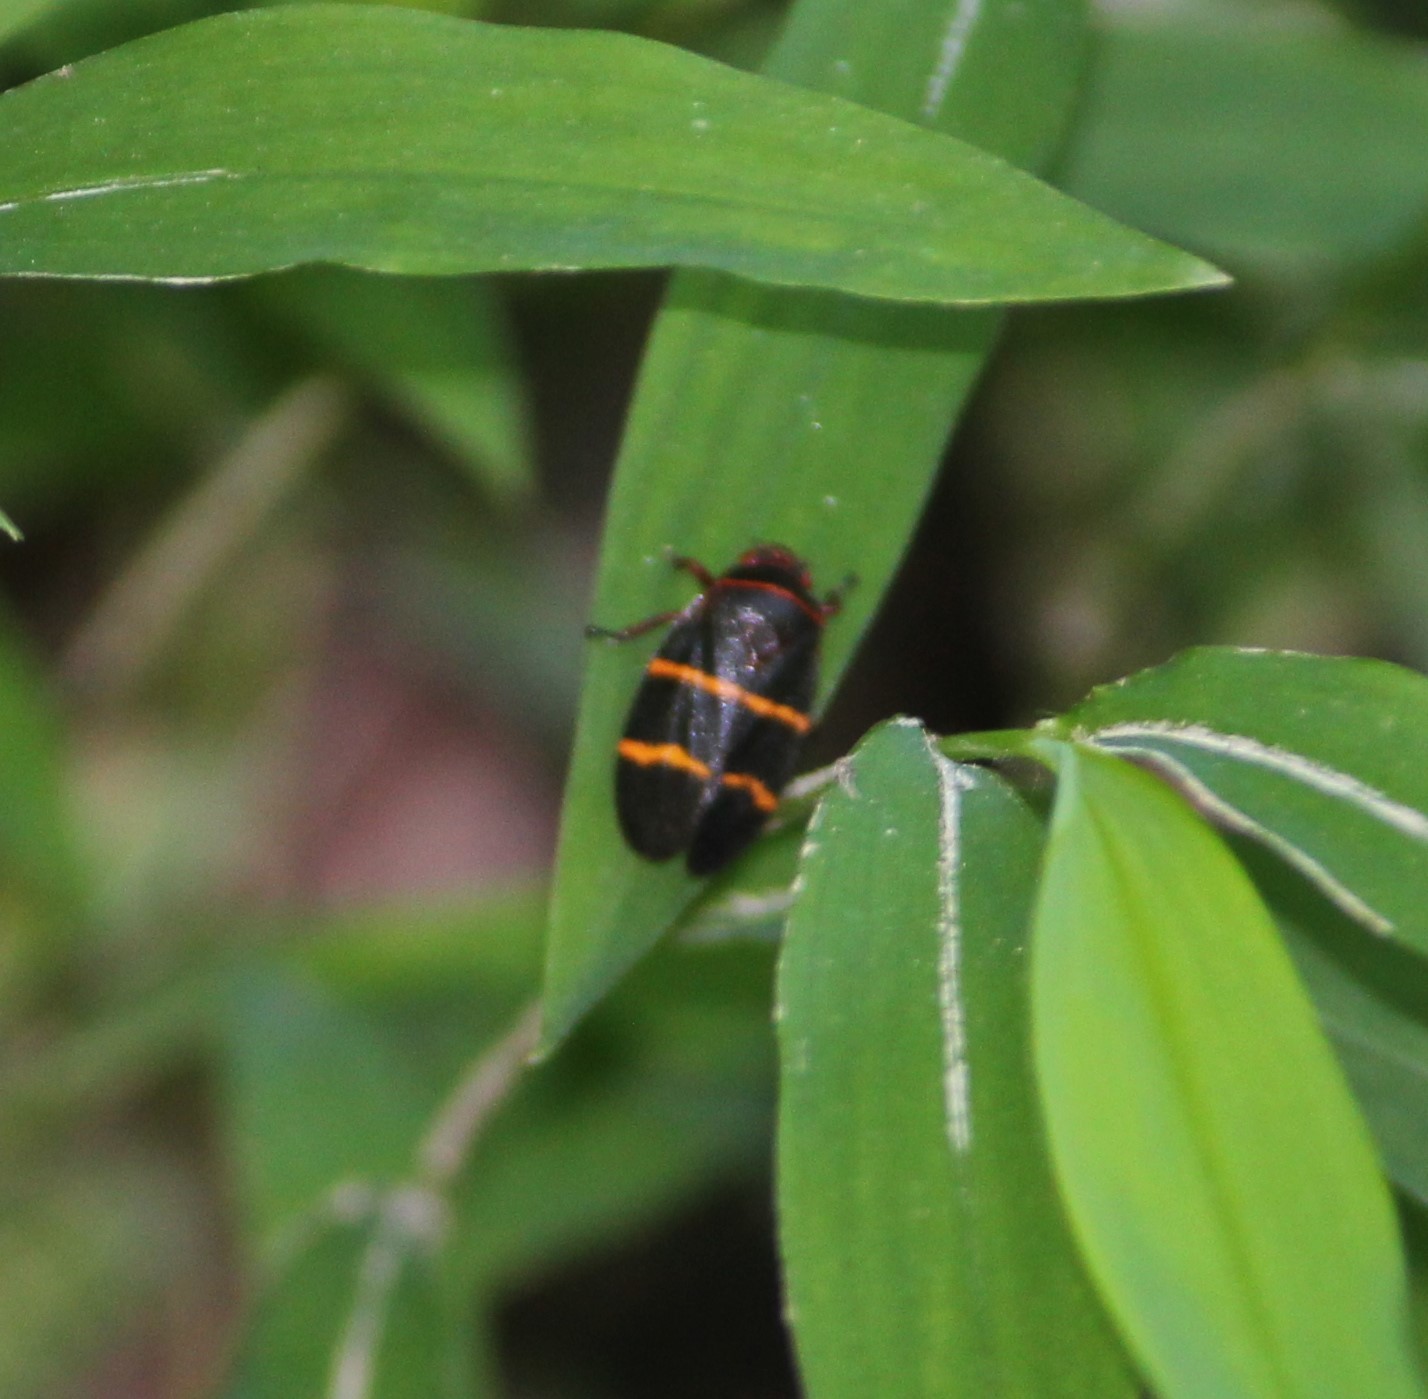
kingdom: Animalia
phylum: Arthropoda
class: Insecta
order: Hemiptera
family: Cercopidae
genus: Prosapia
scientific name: Prosapia bicincta
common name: Twolined spittlebug
